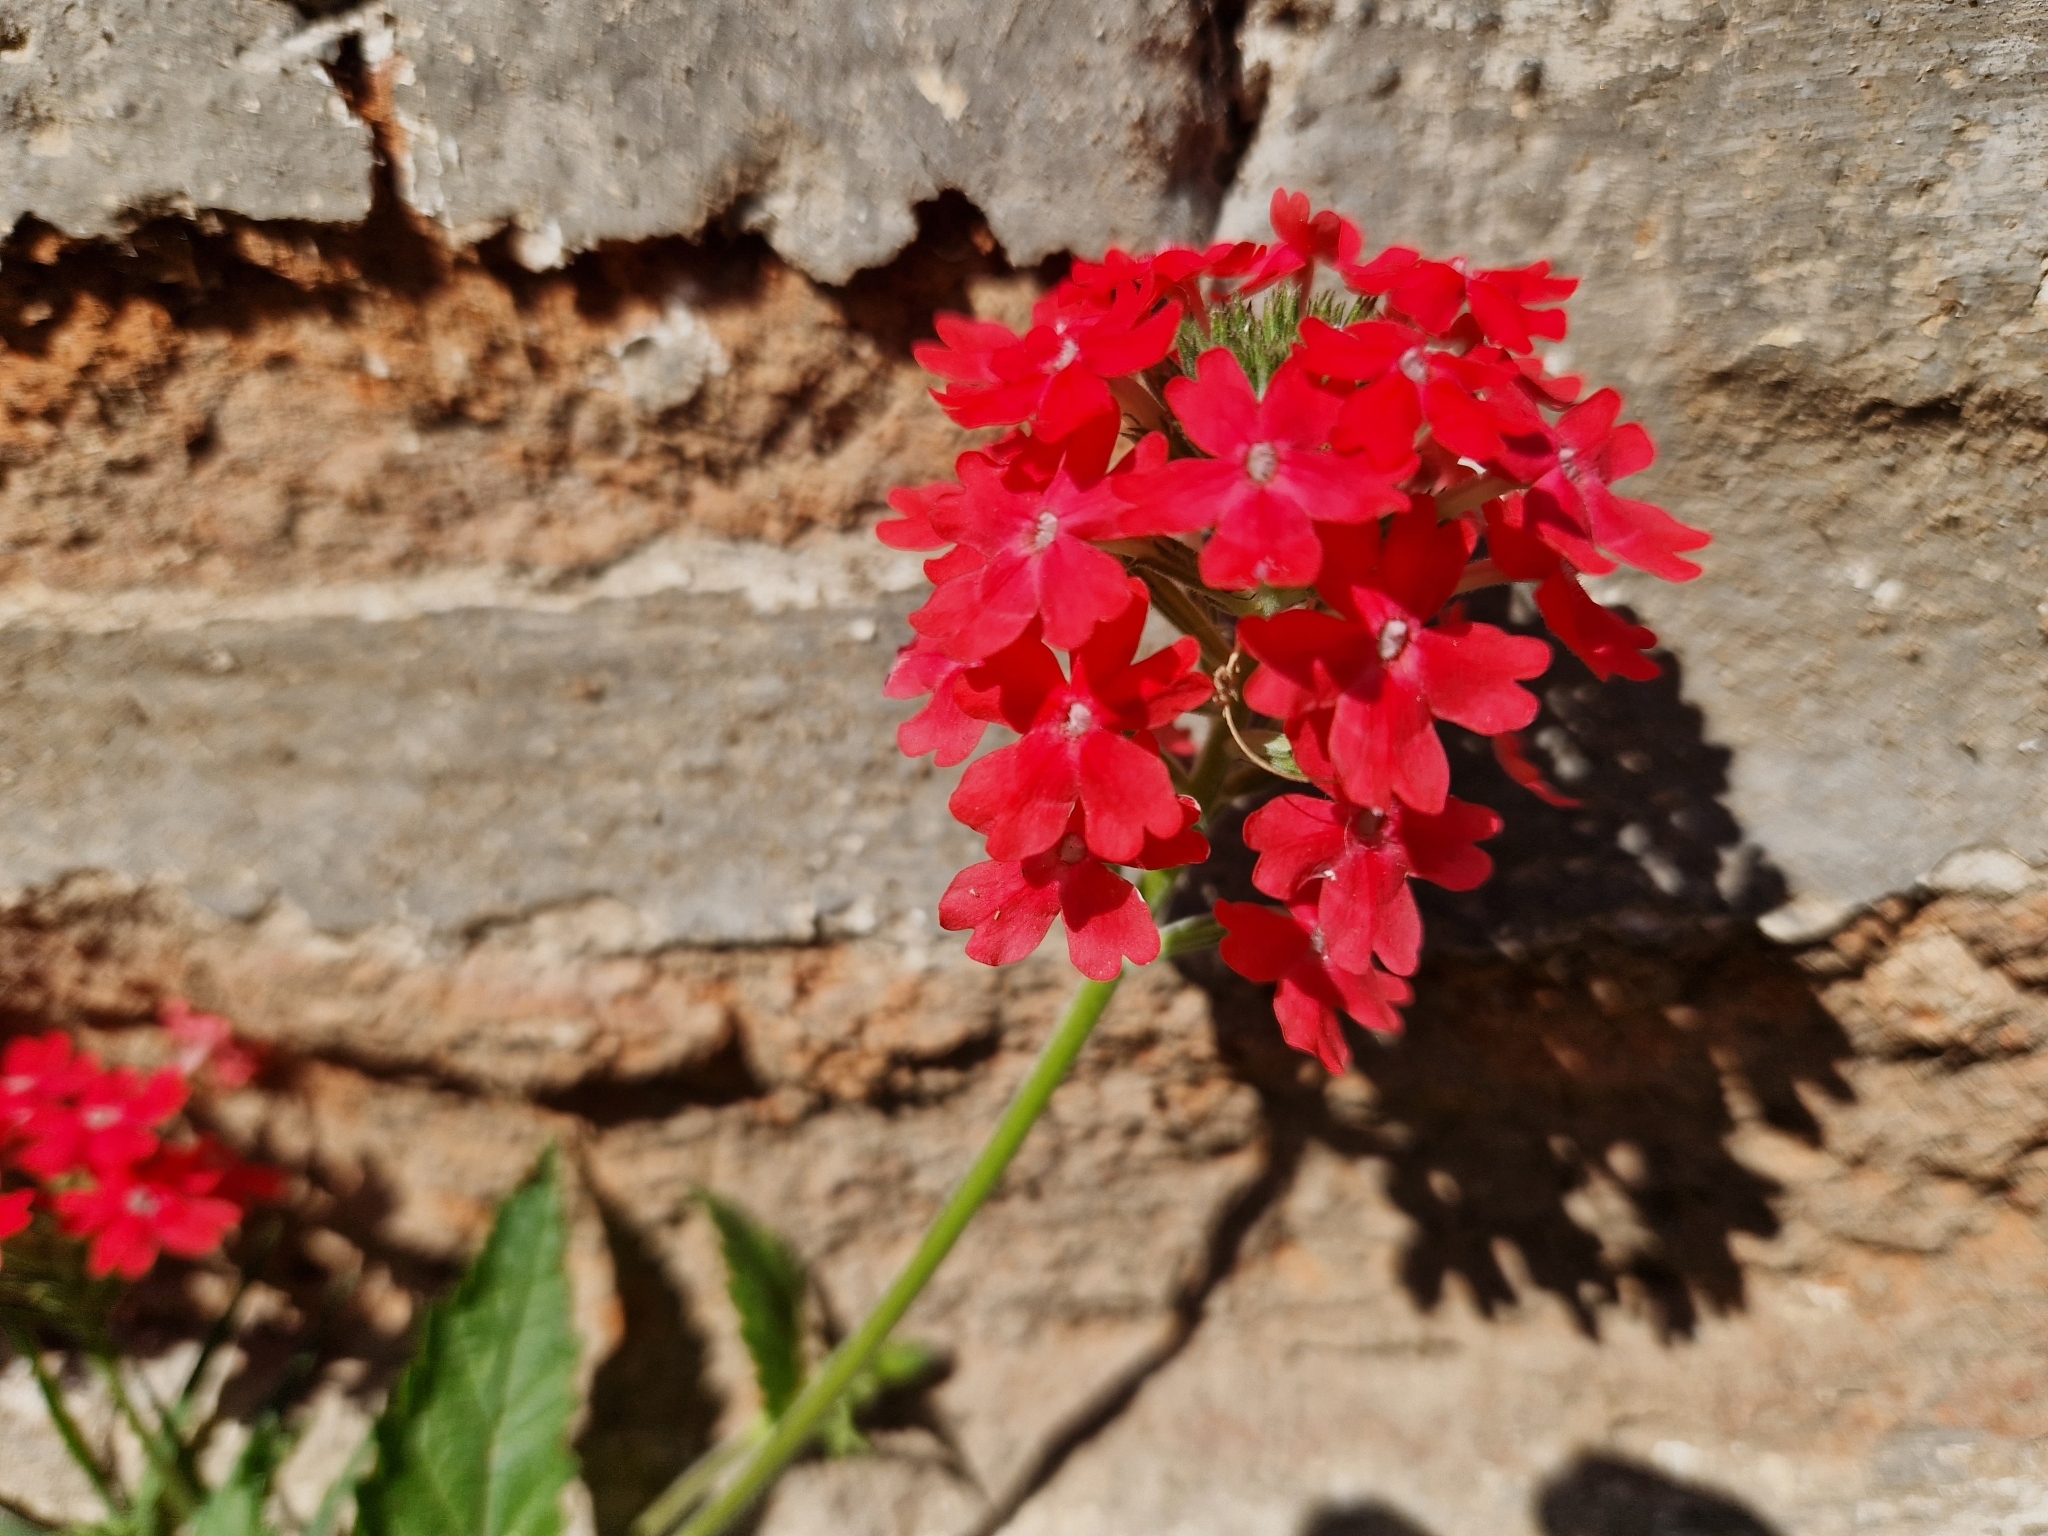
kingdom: Plantae
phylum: Tracheophyta
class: Magnoliopsida
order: Lamiales
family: Verbenaceae
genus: Verbena
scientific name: Verbena tweedieana
